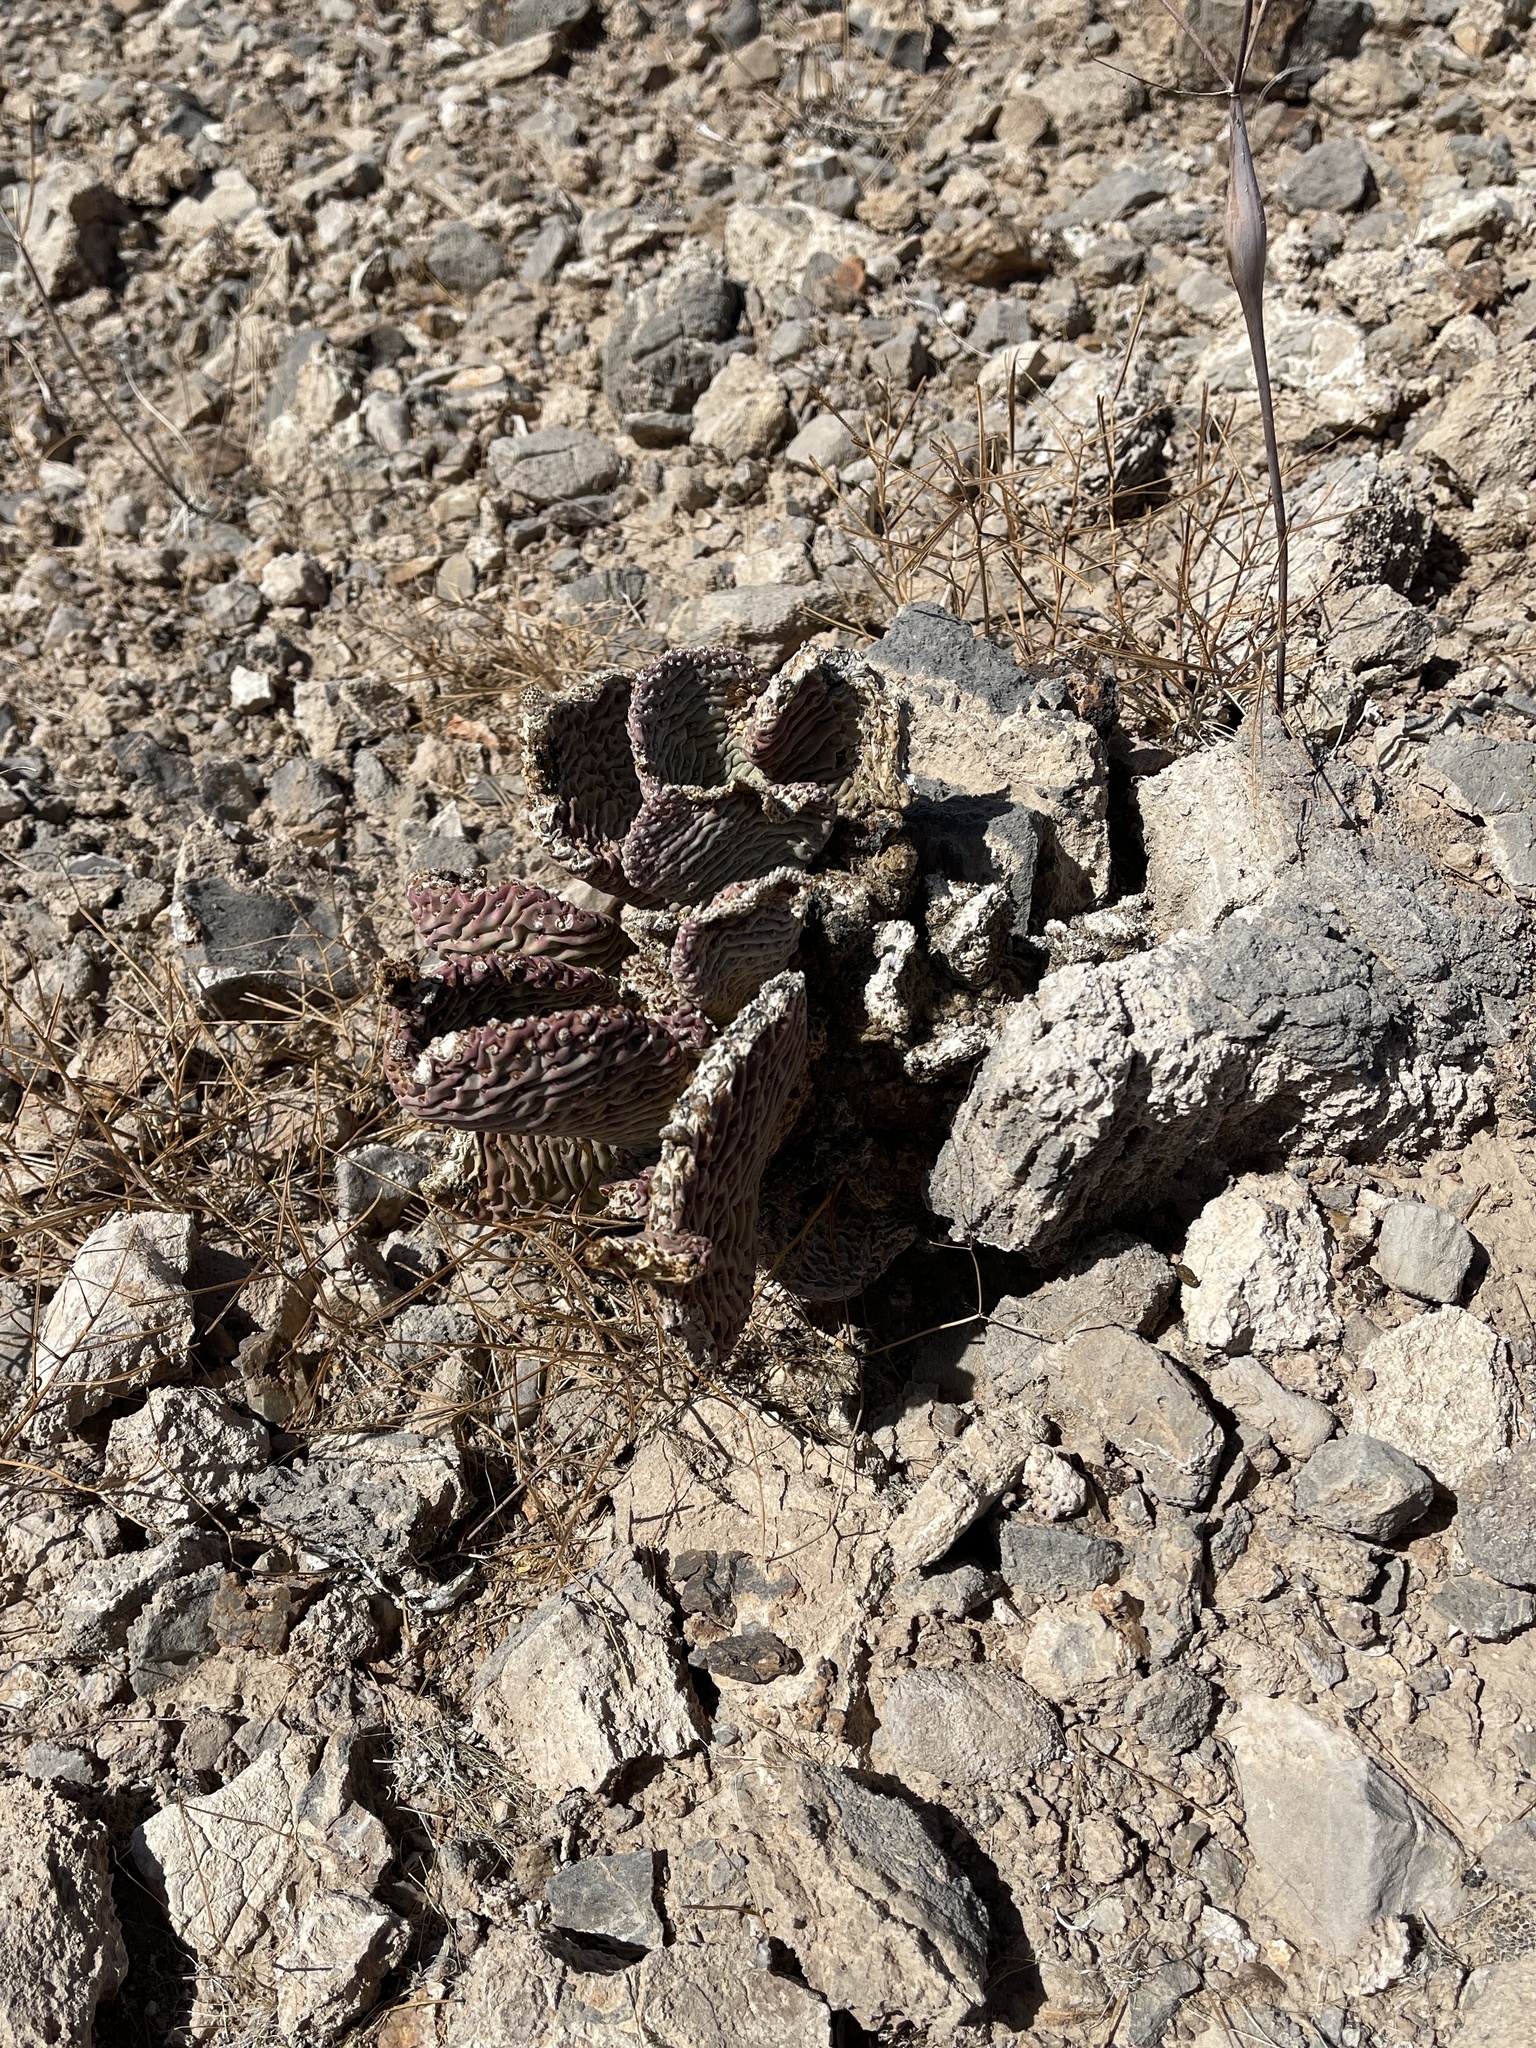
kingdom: Plantae
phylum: Tracheophyta
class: Magnoliopsida
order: Caryophyllales
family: Cactaceae
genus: Opuntia
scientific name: Opuntia basilaris
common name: Beavertail prickly-pear
